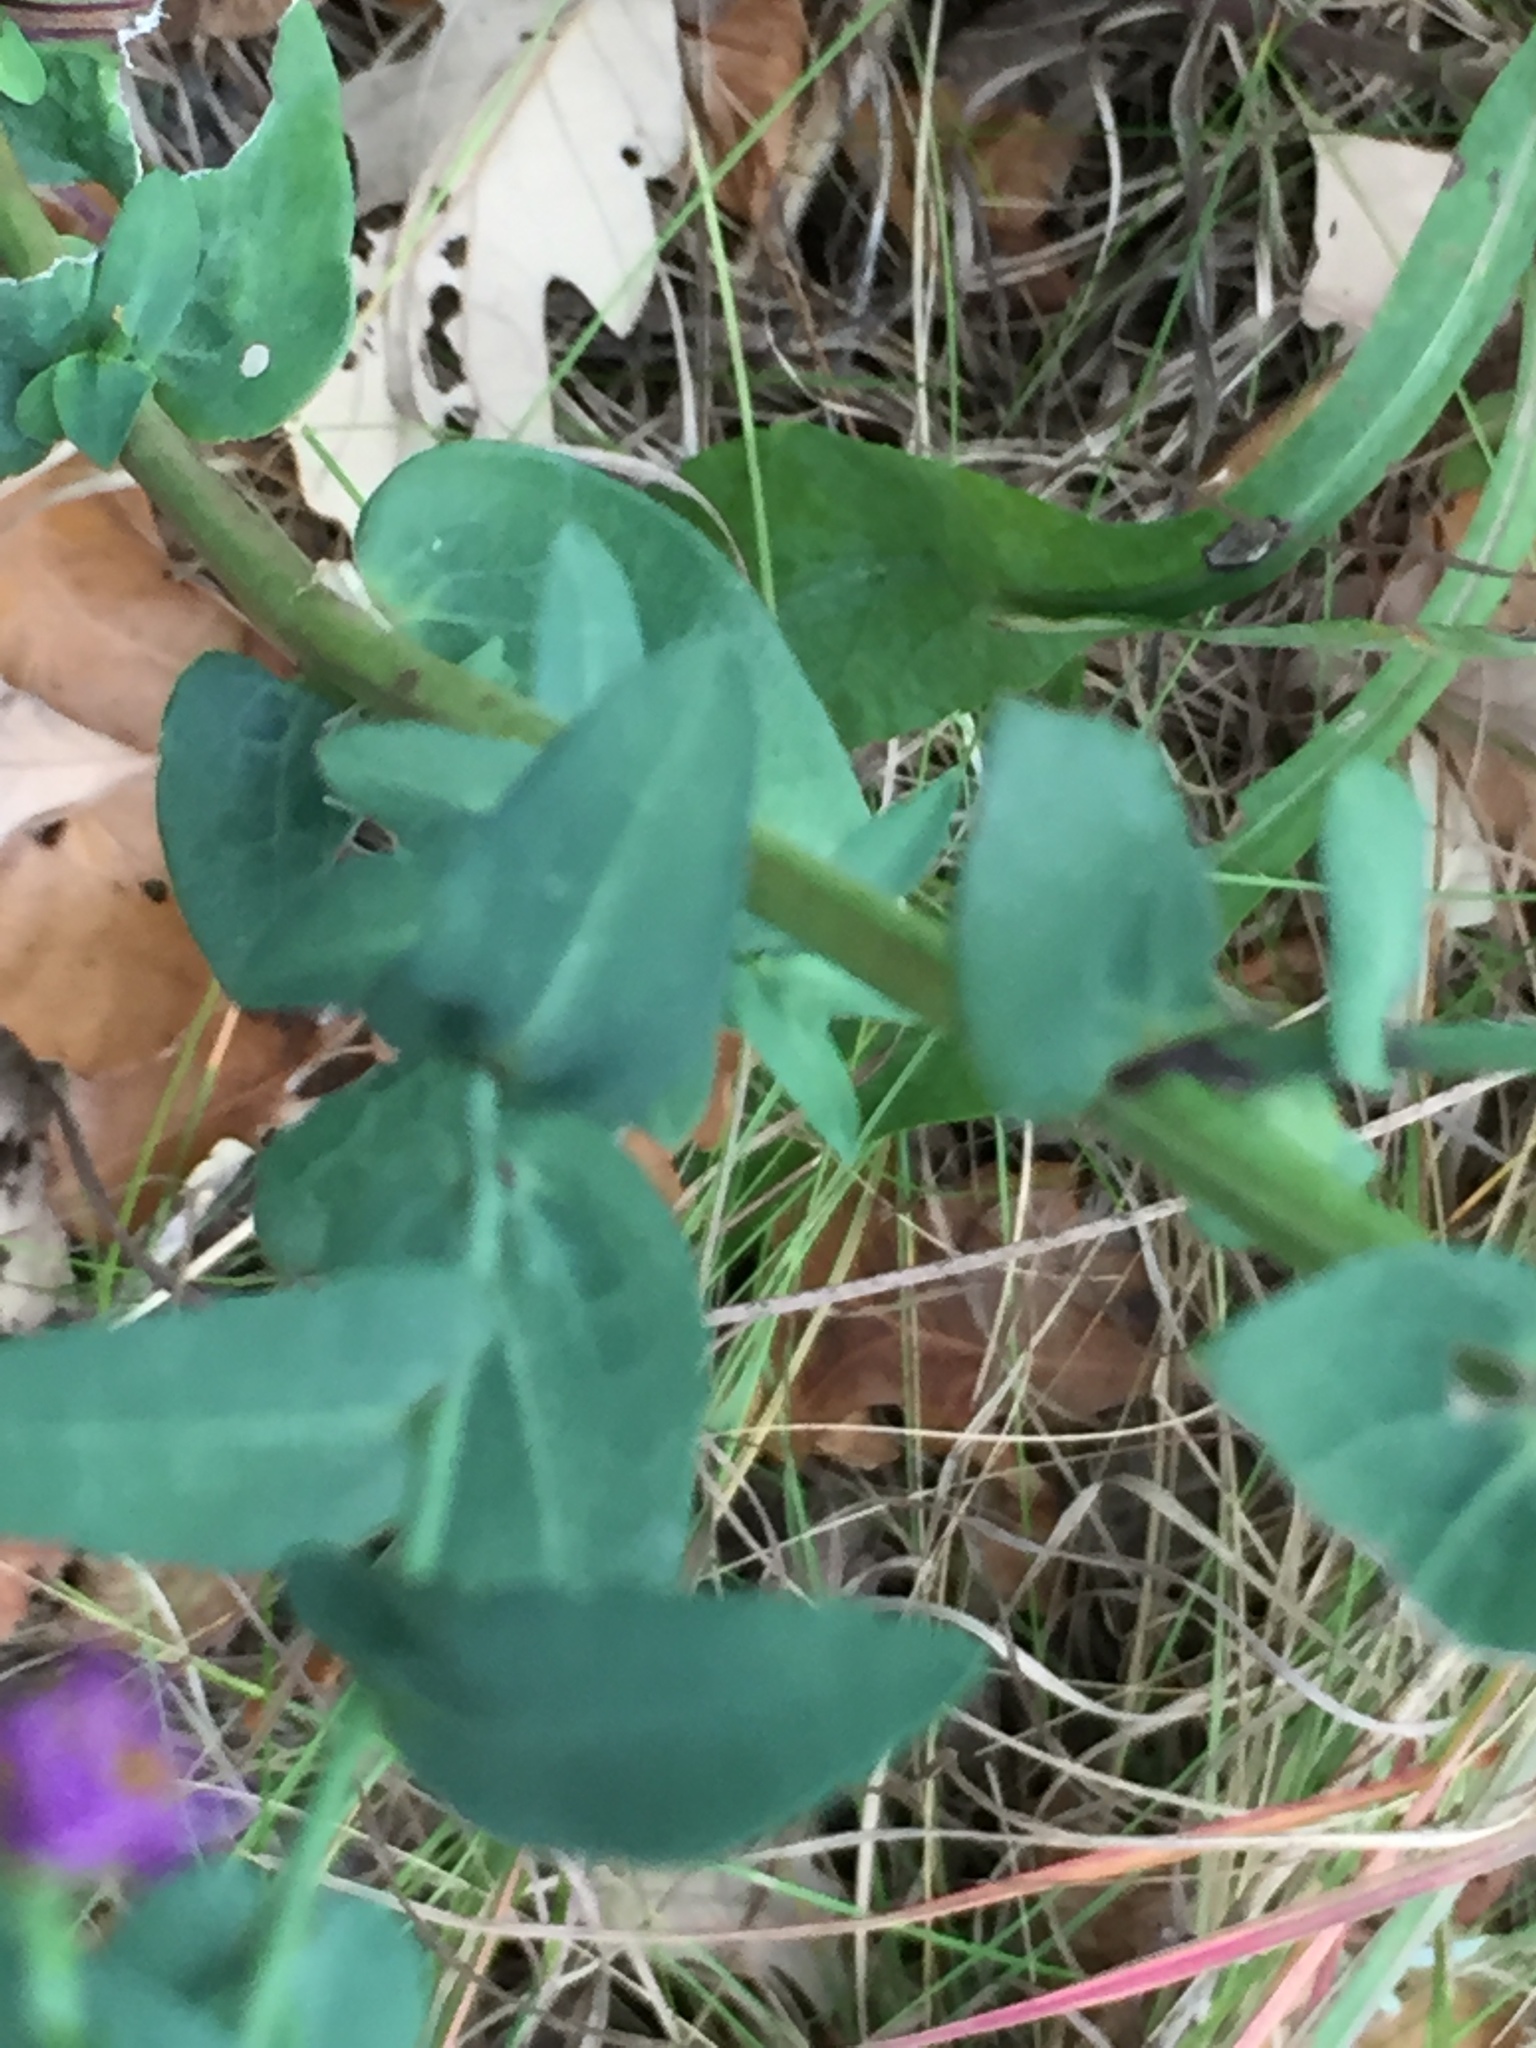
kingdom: Plantae
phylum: Tracheophyta
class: Magnoliopsida
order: Asterales
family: Asteraceae
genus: Symphyotrichum
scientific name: Symphyotrichum laeve
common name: Glaucous aster
